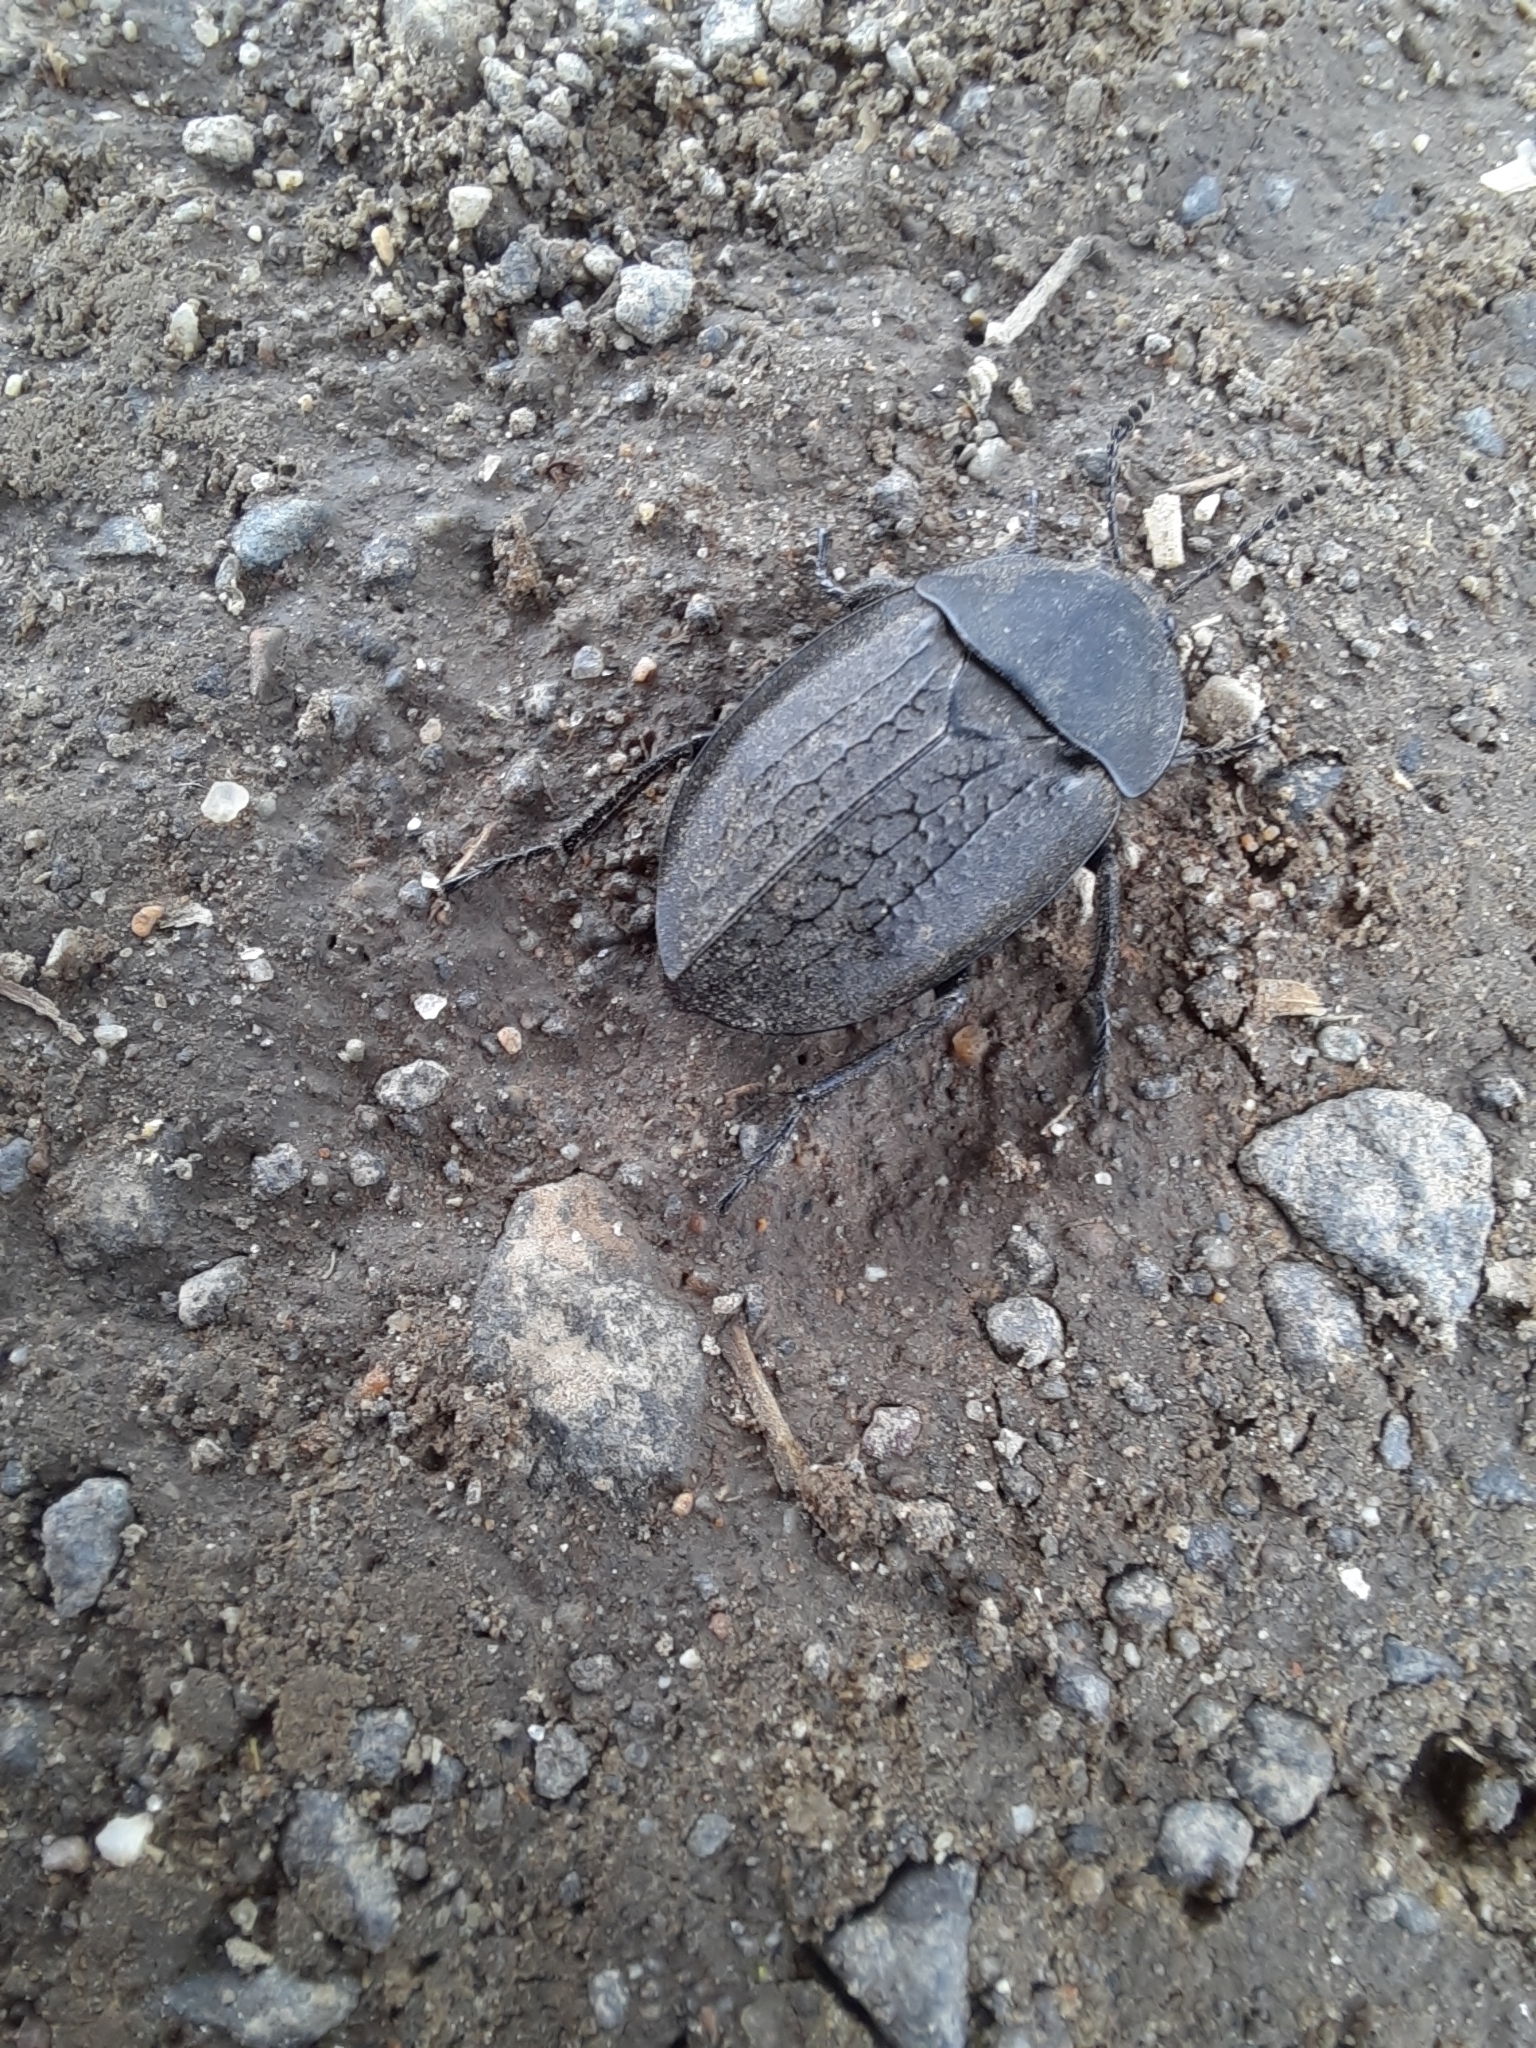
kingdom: Animalia
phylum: Arthropoda
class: Insecta
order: Coleoptera
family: Staphylinidae
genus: Heterosilpha
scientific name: Heterosilpha ramosa
